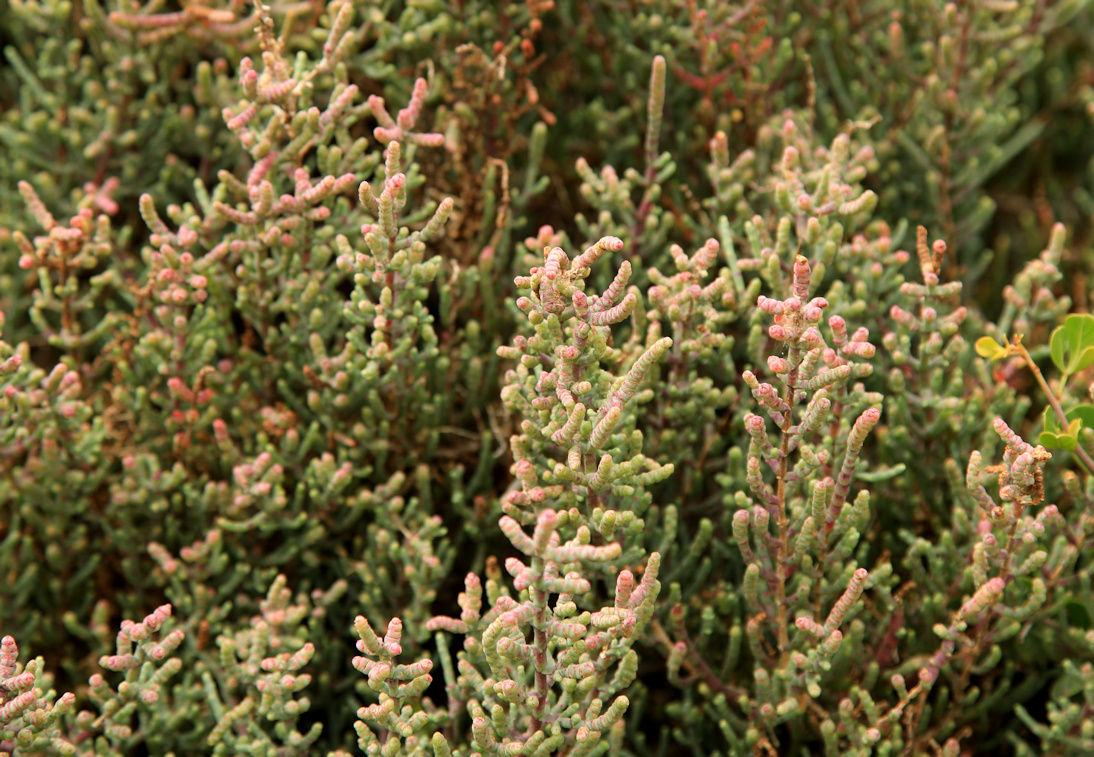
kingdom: Plantae
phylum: Tracheophyta
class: Magnoliopsida
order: Caryophyllales
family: Amaranthaceae
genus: Salicornia
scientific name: Salicornia pillansii
